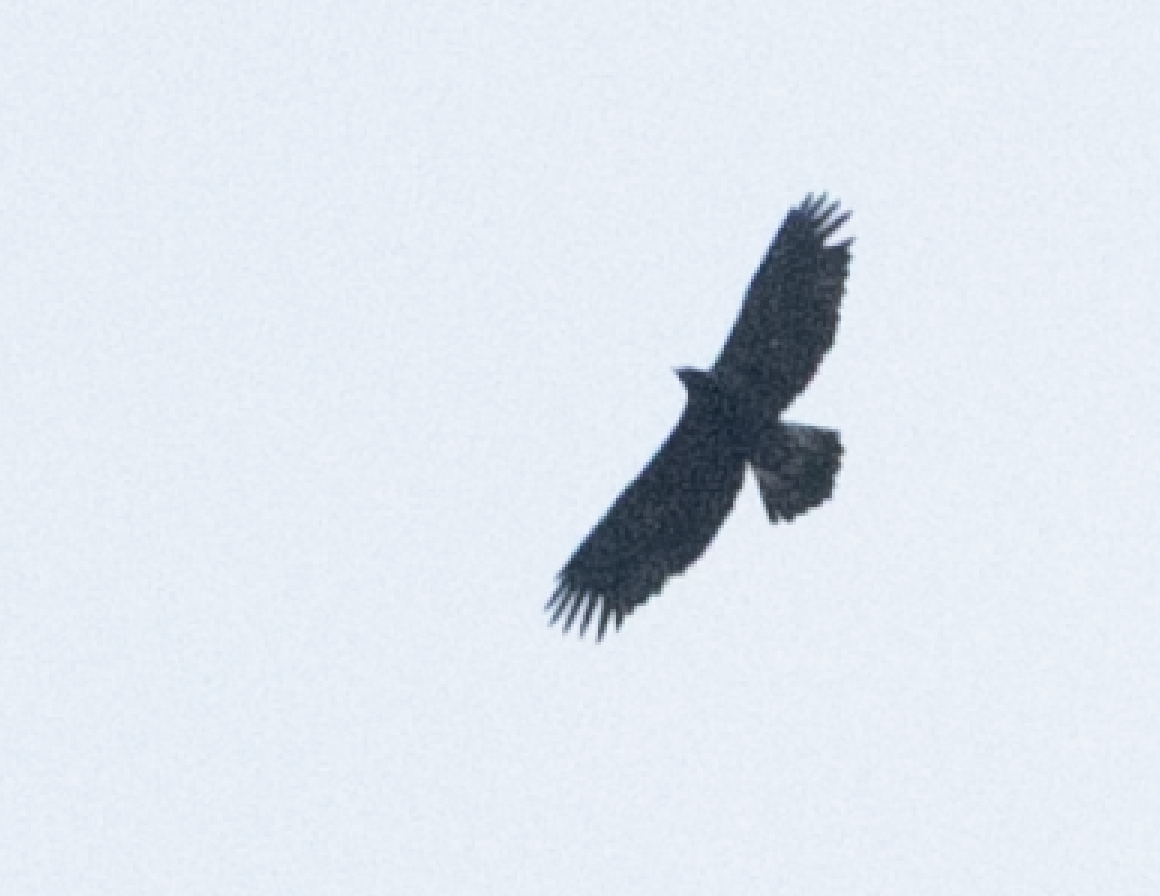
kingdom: Animalia
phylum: Chordata
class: Aves
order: Accipitriformes
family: Accipitridae
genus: Aquila
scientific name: Aquila chrysaetos
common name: Golden eagle
